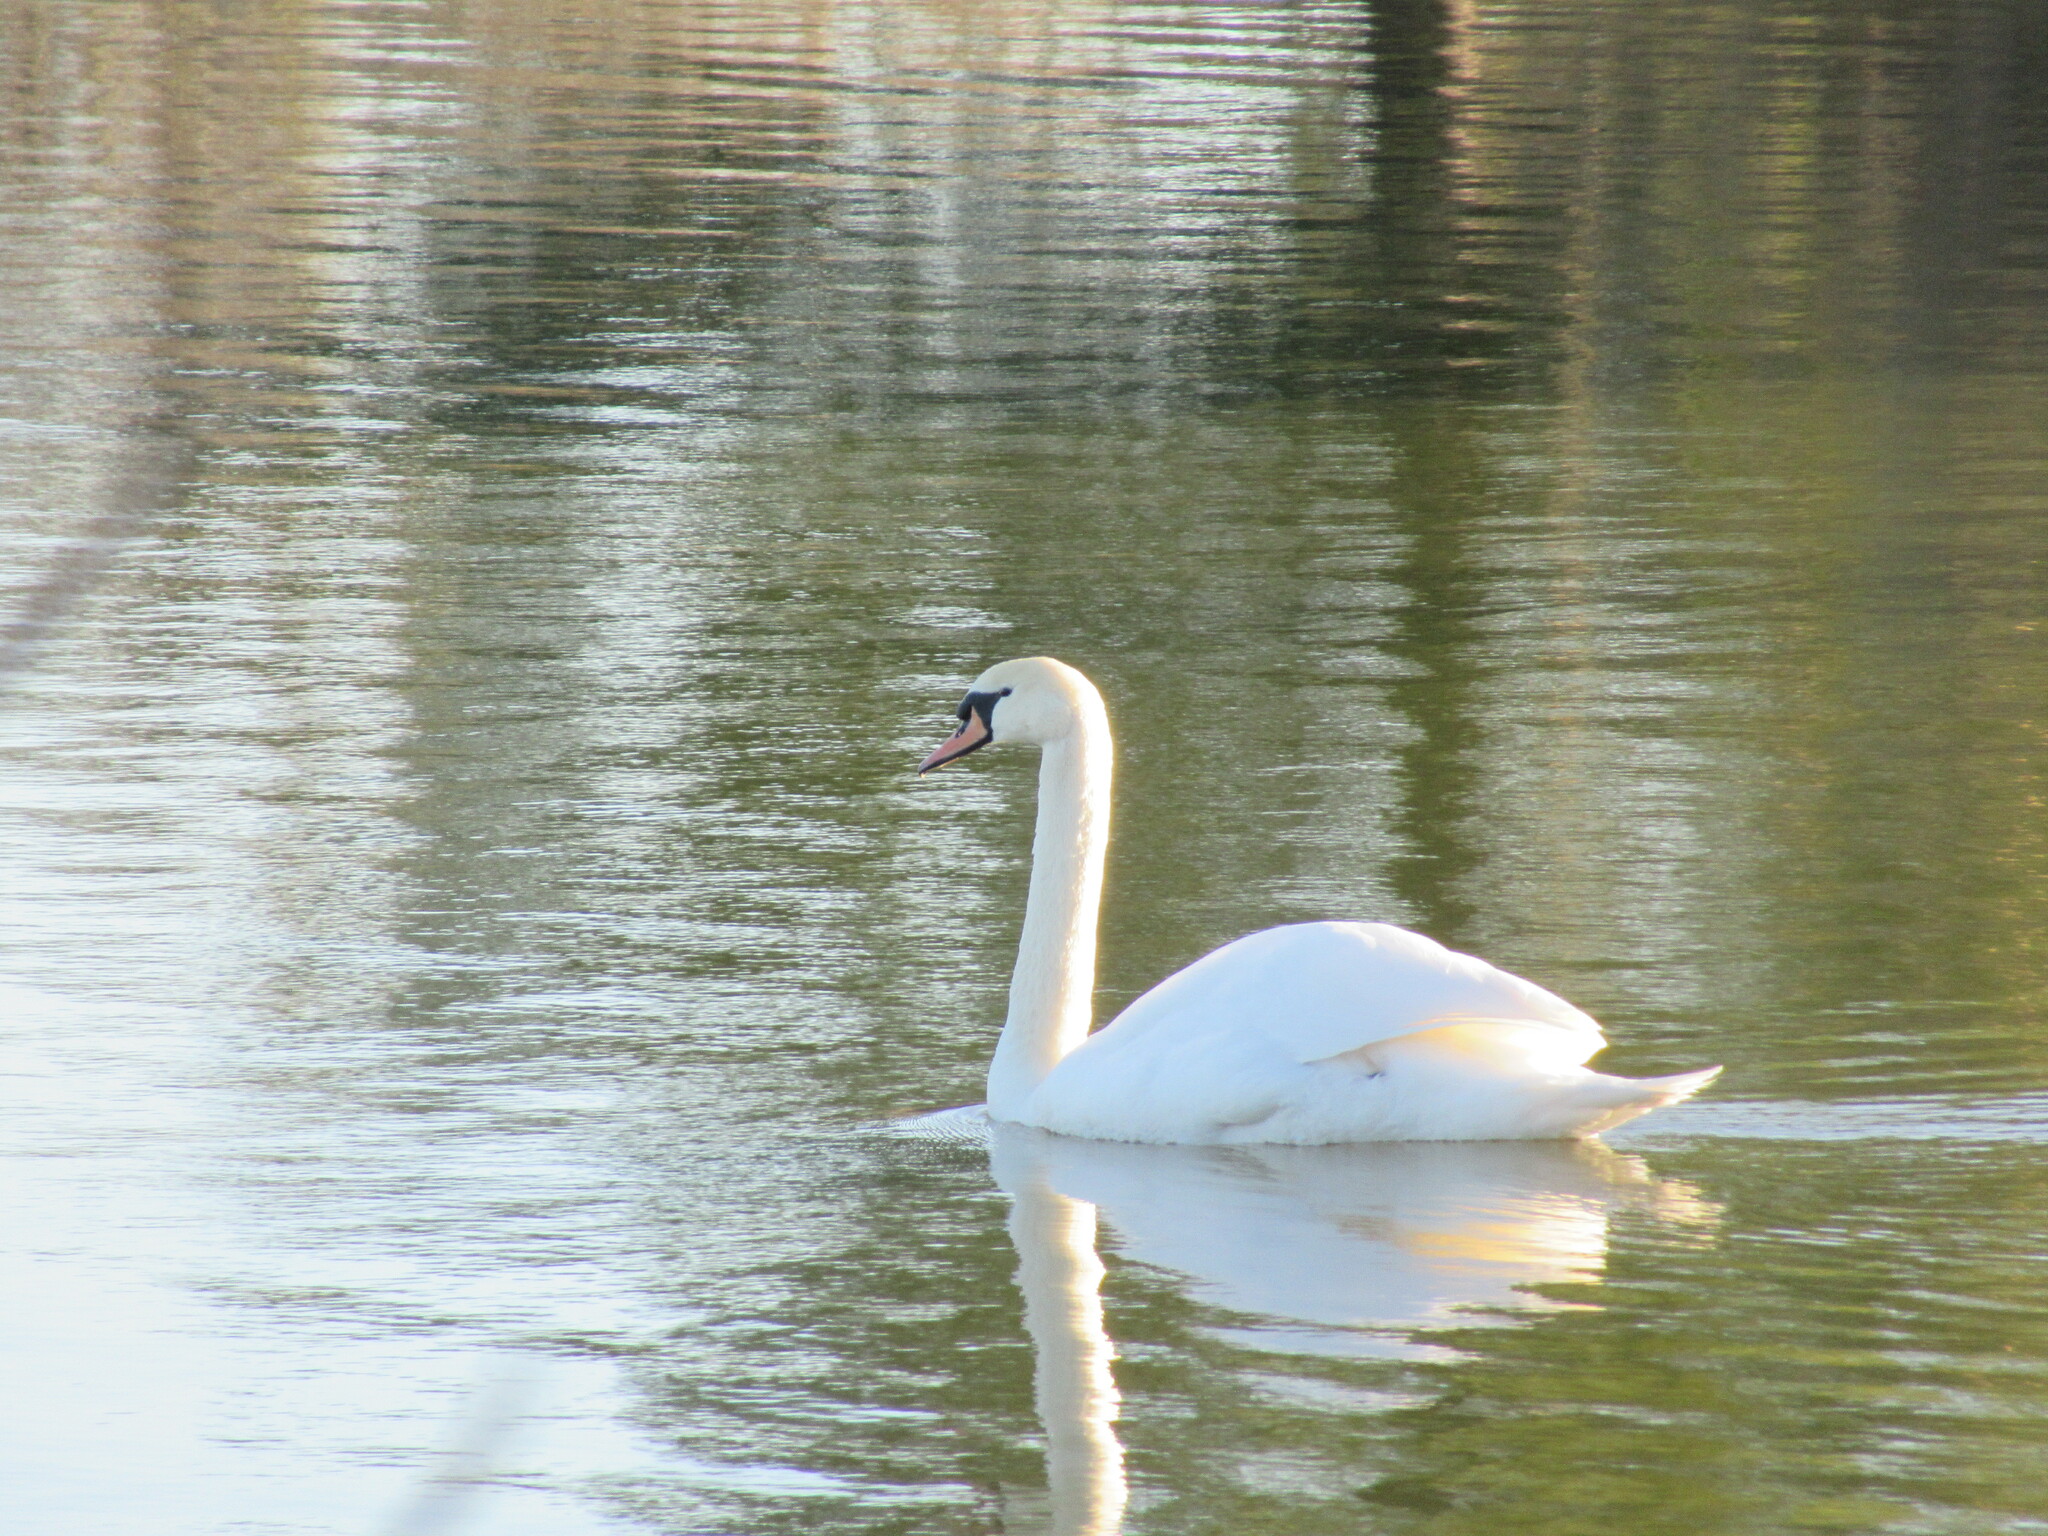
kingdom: Animalia
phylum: Chordata
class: Aves
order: Anseriformes
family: Anatidae
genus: Cygnus
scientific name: Cygnus olor
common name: Mute swan
